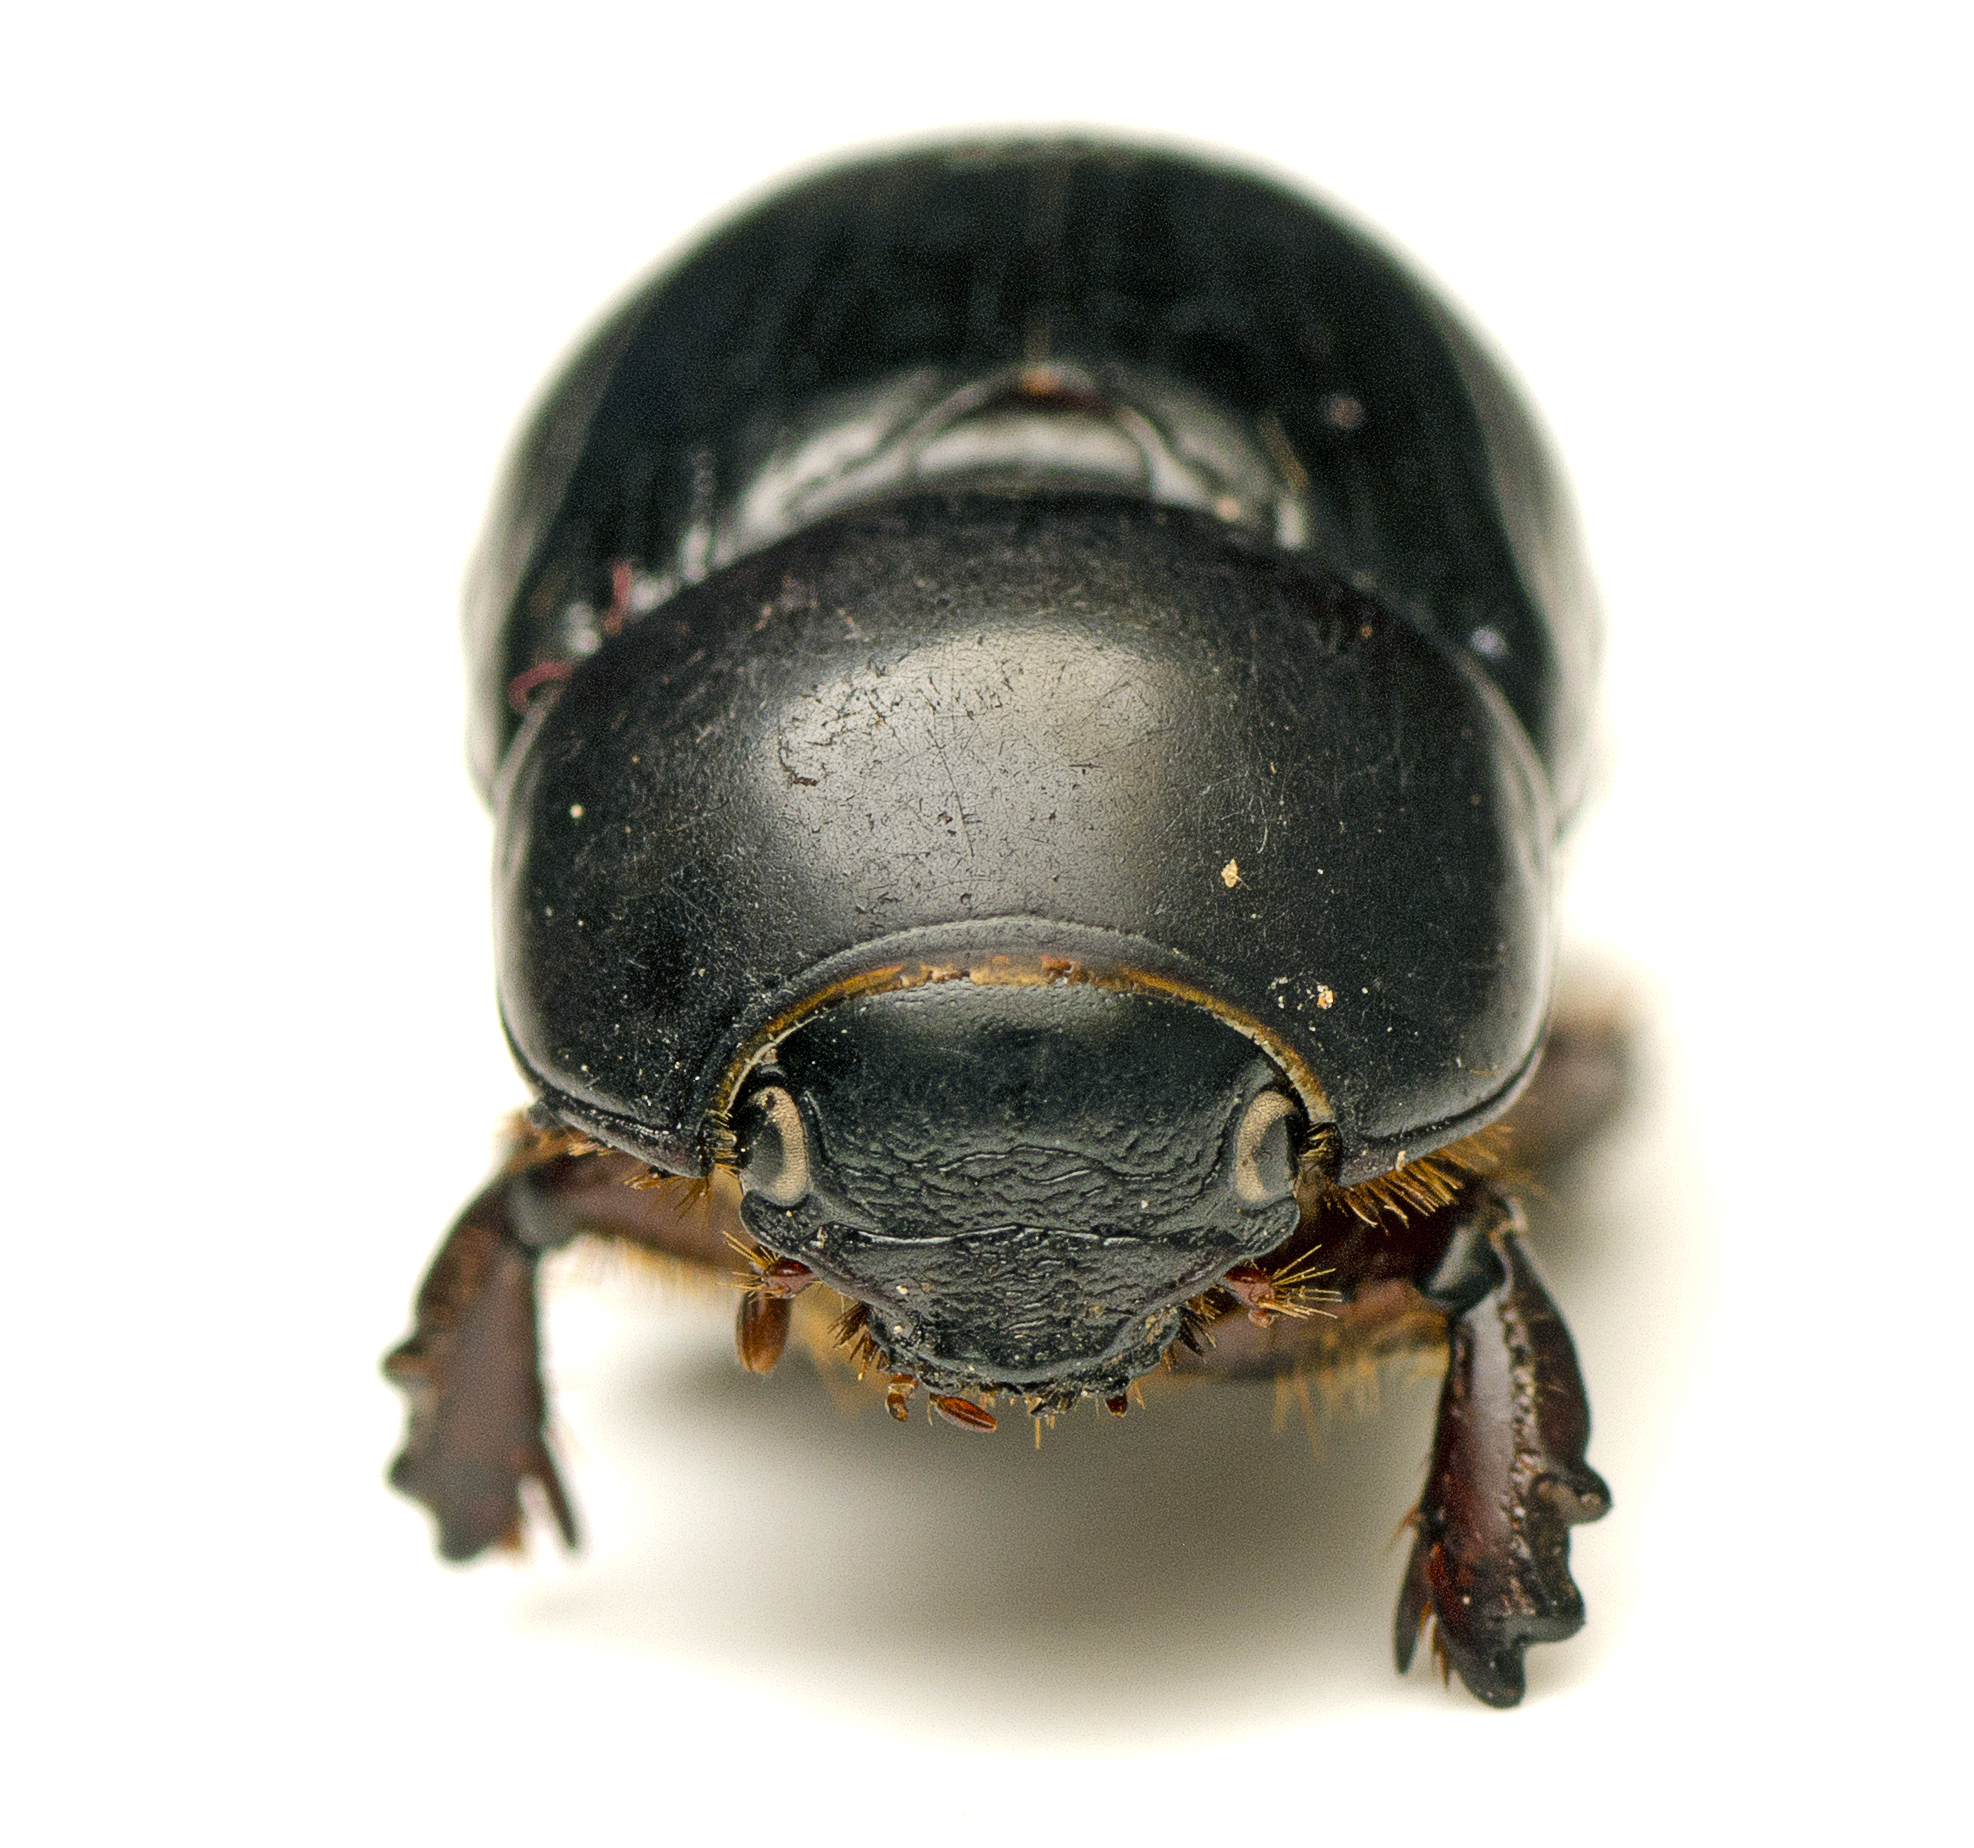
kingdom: Animalia
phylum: Arthropoda
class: Insecta
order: Coleoptera
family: Scarabaeidae
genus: Heteronychus
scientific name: Heteronychus arator
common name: African black beetle
